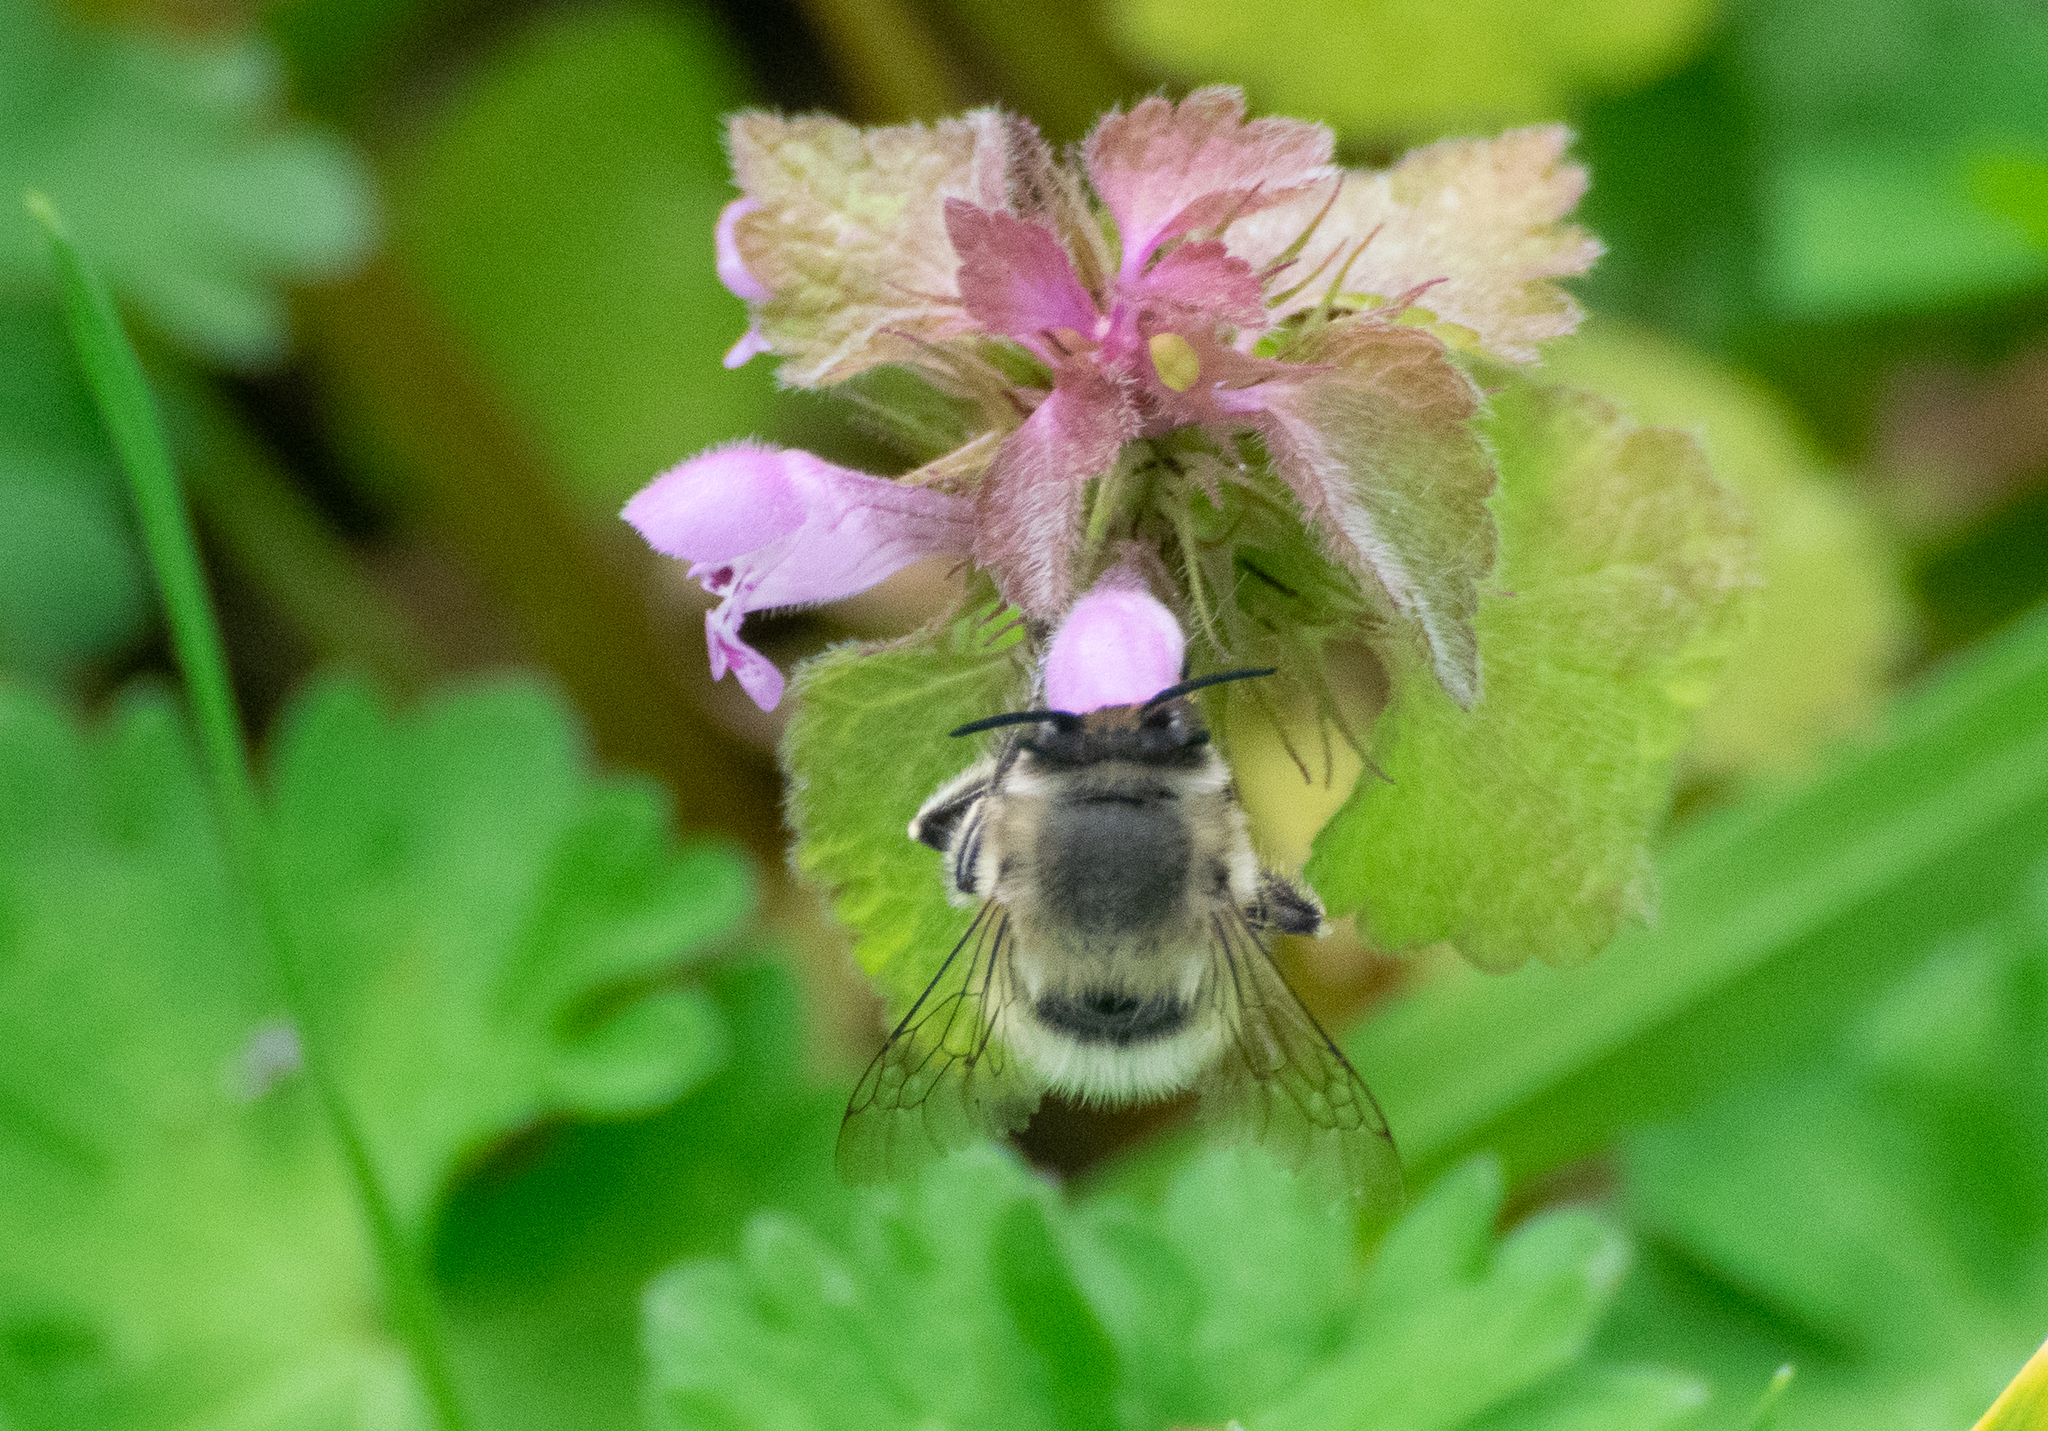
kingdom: Animalia
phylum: Arthropoda
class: Insecta
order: Hymenoptera
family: Apidae
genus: Anthophora
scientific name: Anthophora plumipes
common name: Hairy-footed flower bee
